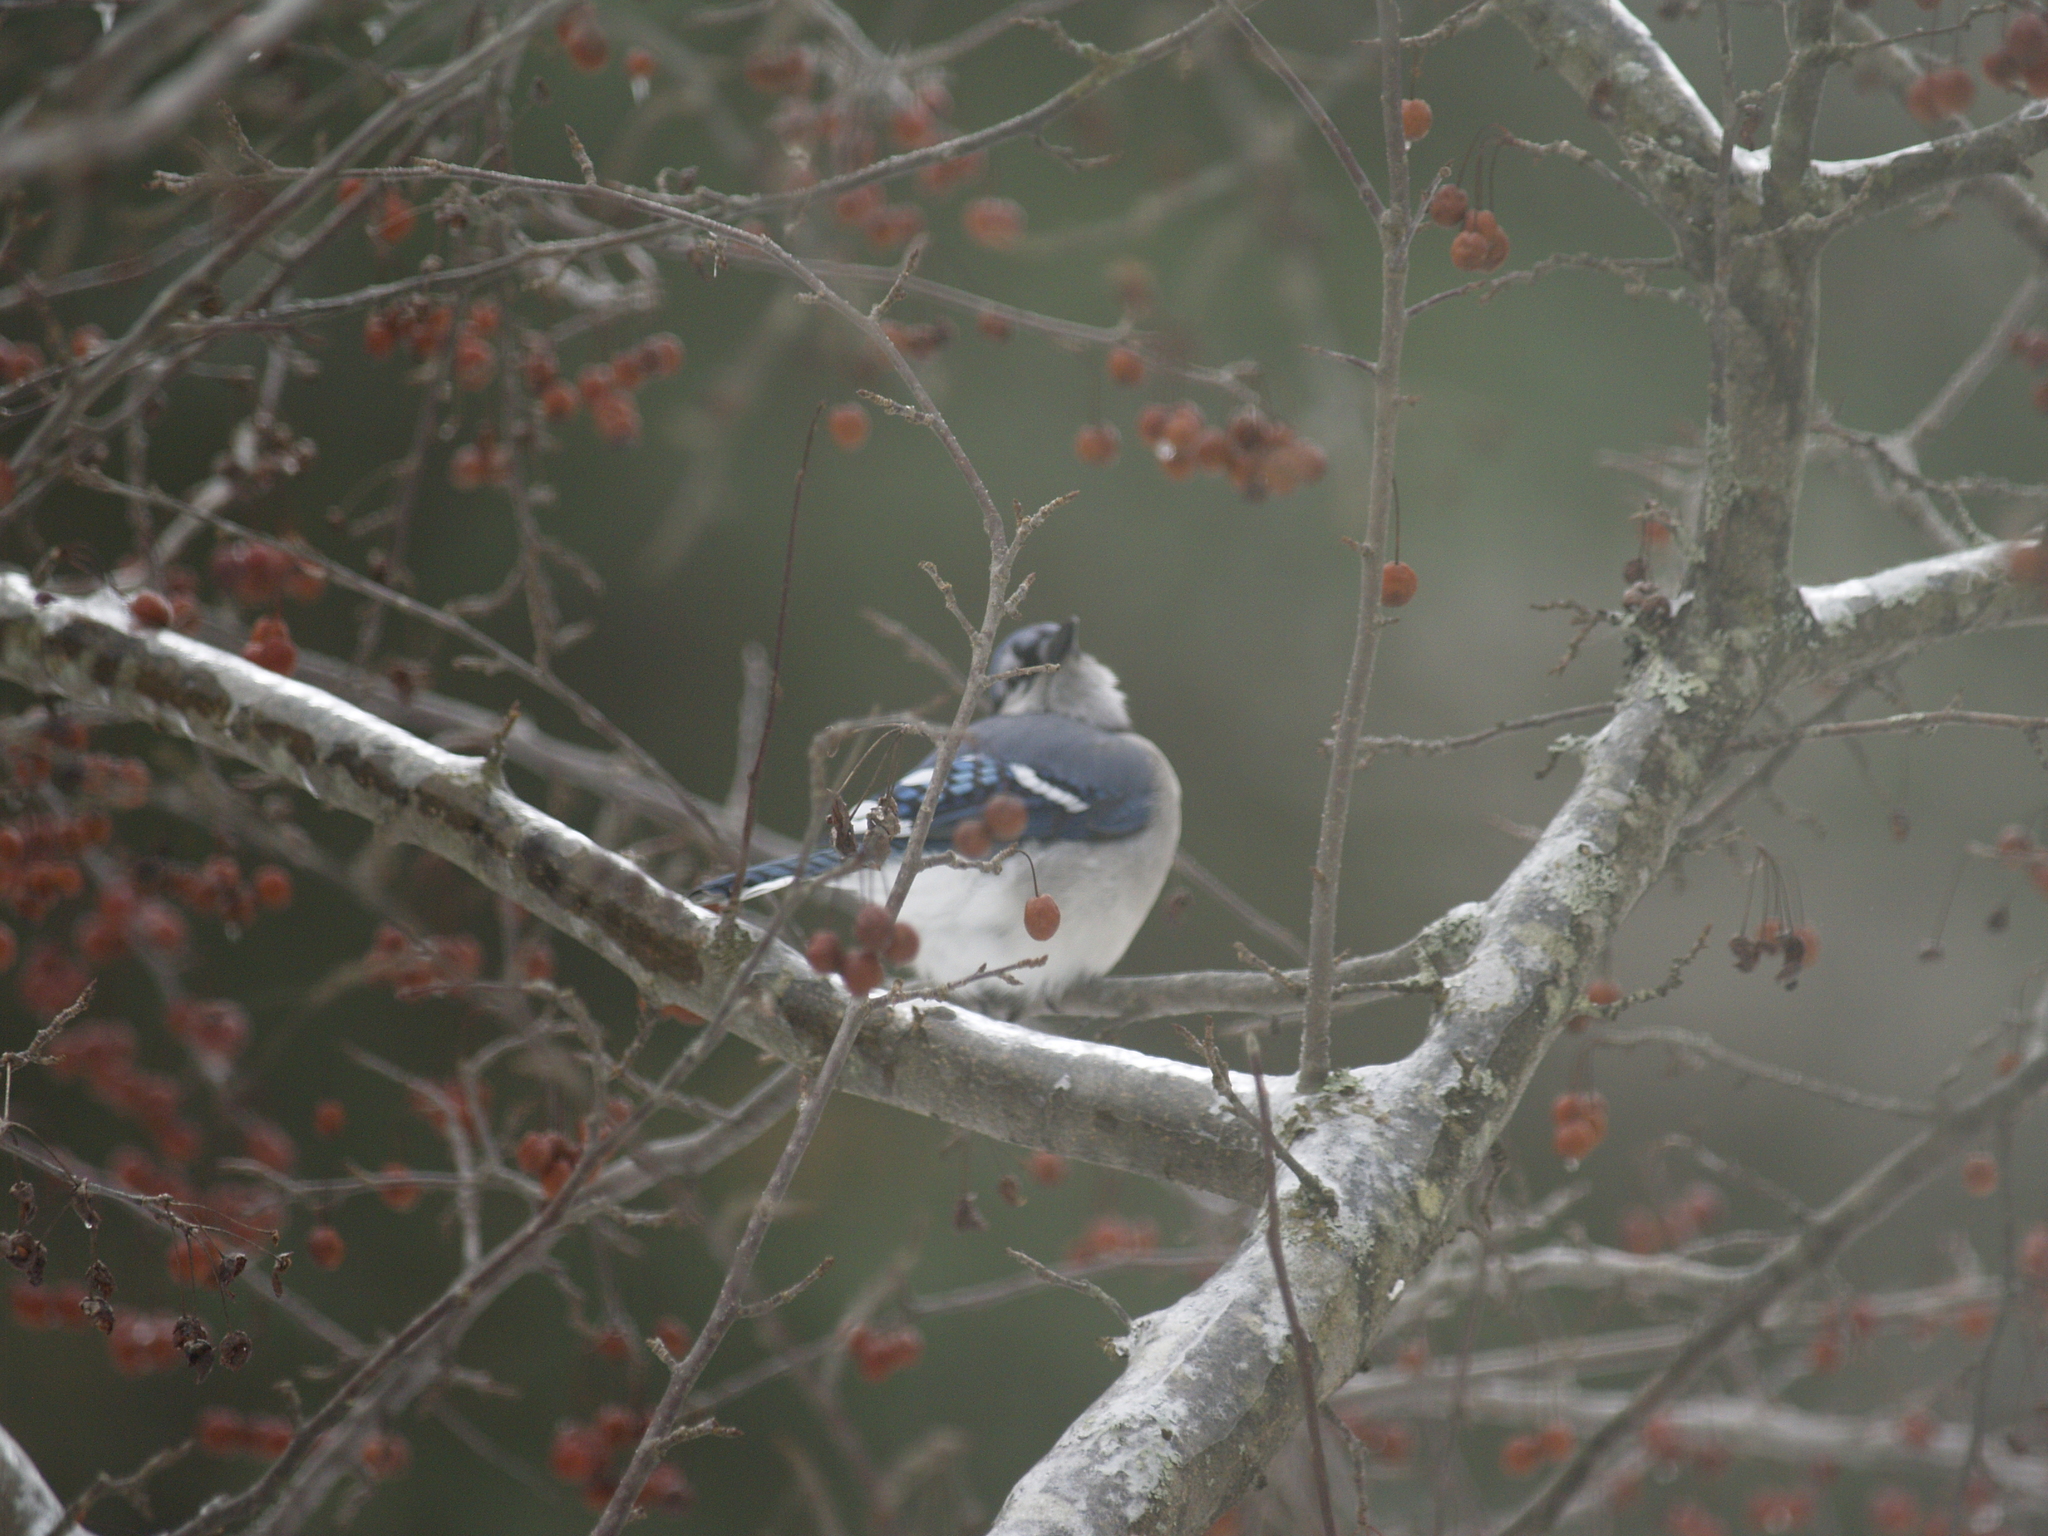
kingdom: Animalia
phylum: Chordata
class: Aves
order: Passeriformes
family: Corvidae
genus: Cyanocitta
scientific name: Cyanocitta cristata
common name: Blue jay
